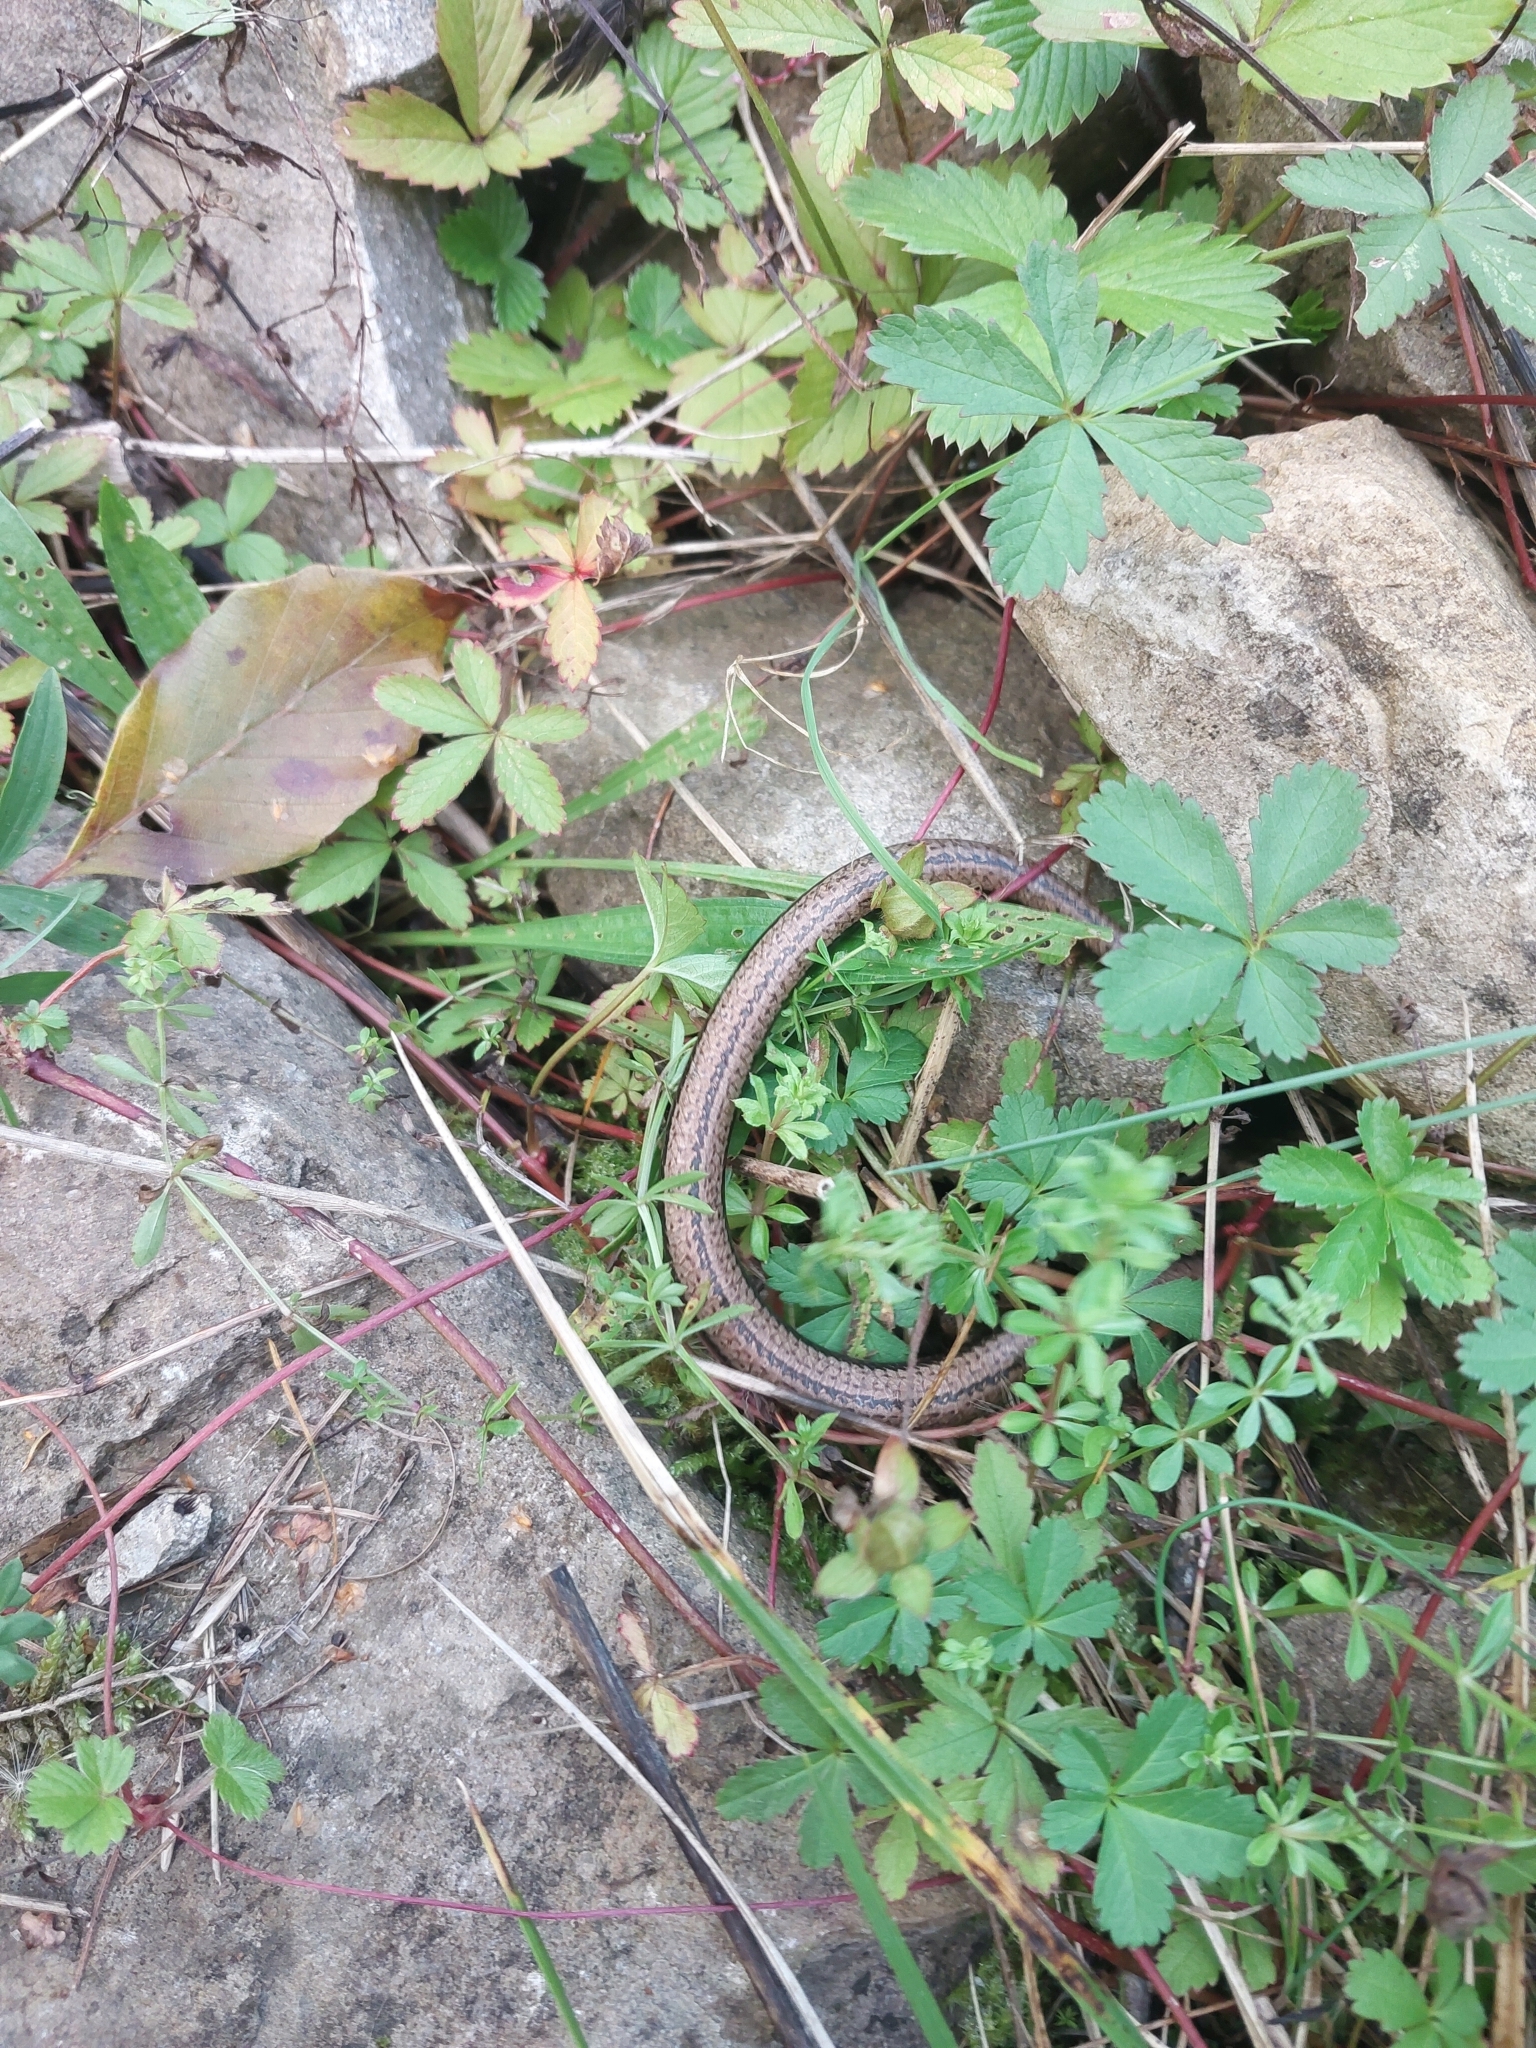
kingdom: Animalia
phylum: Chordata
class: Squamata
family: Anguidae
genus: Anguis
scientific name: Anguis fragilis
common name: Slow worm
